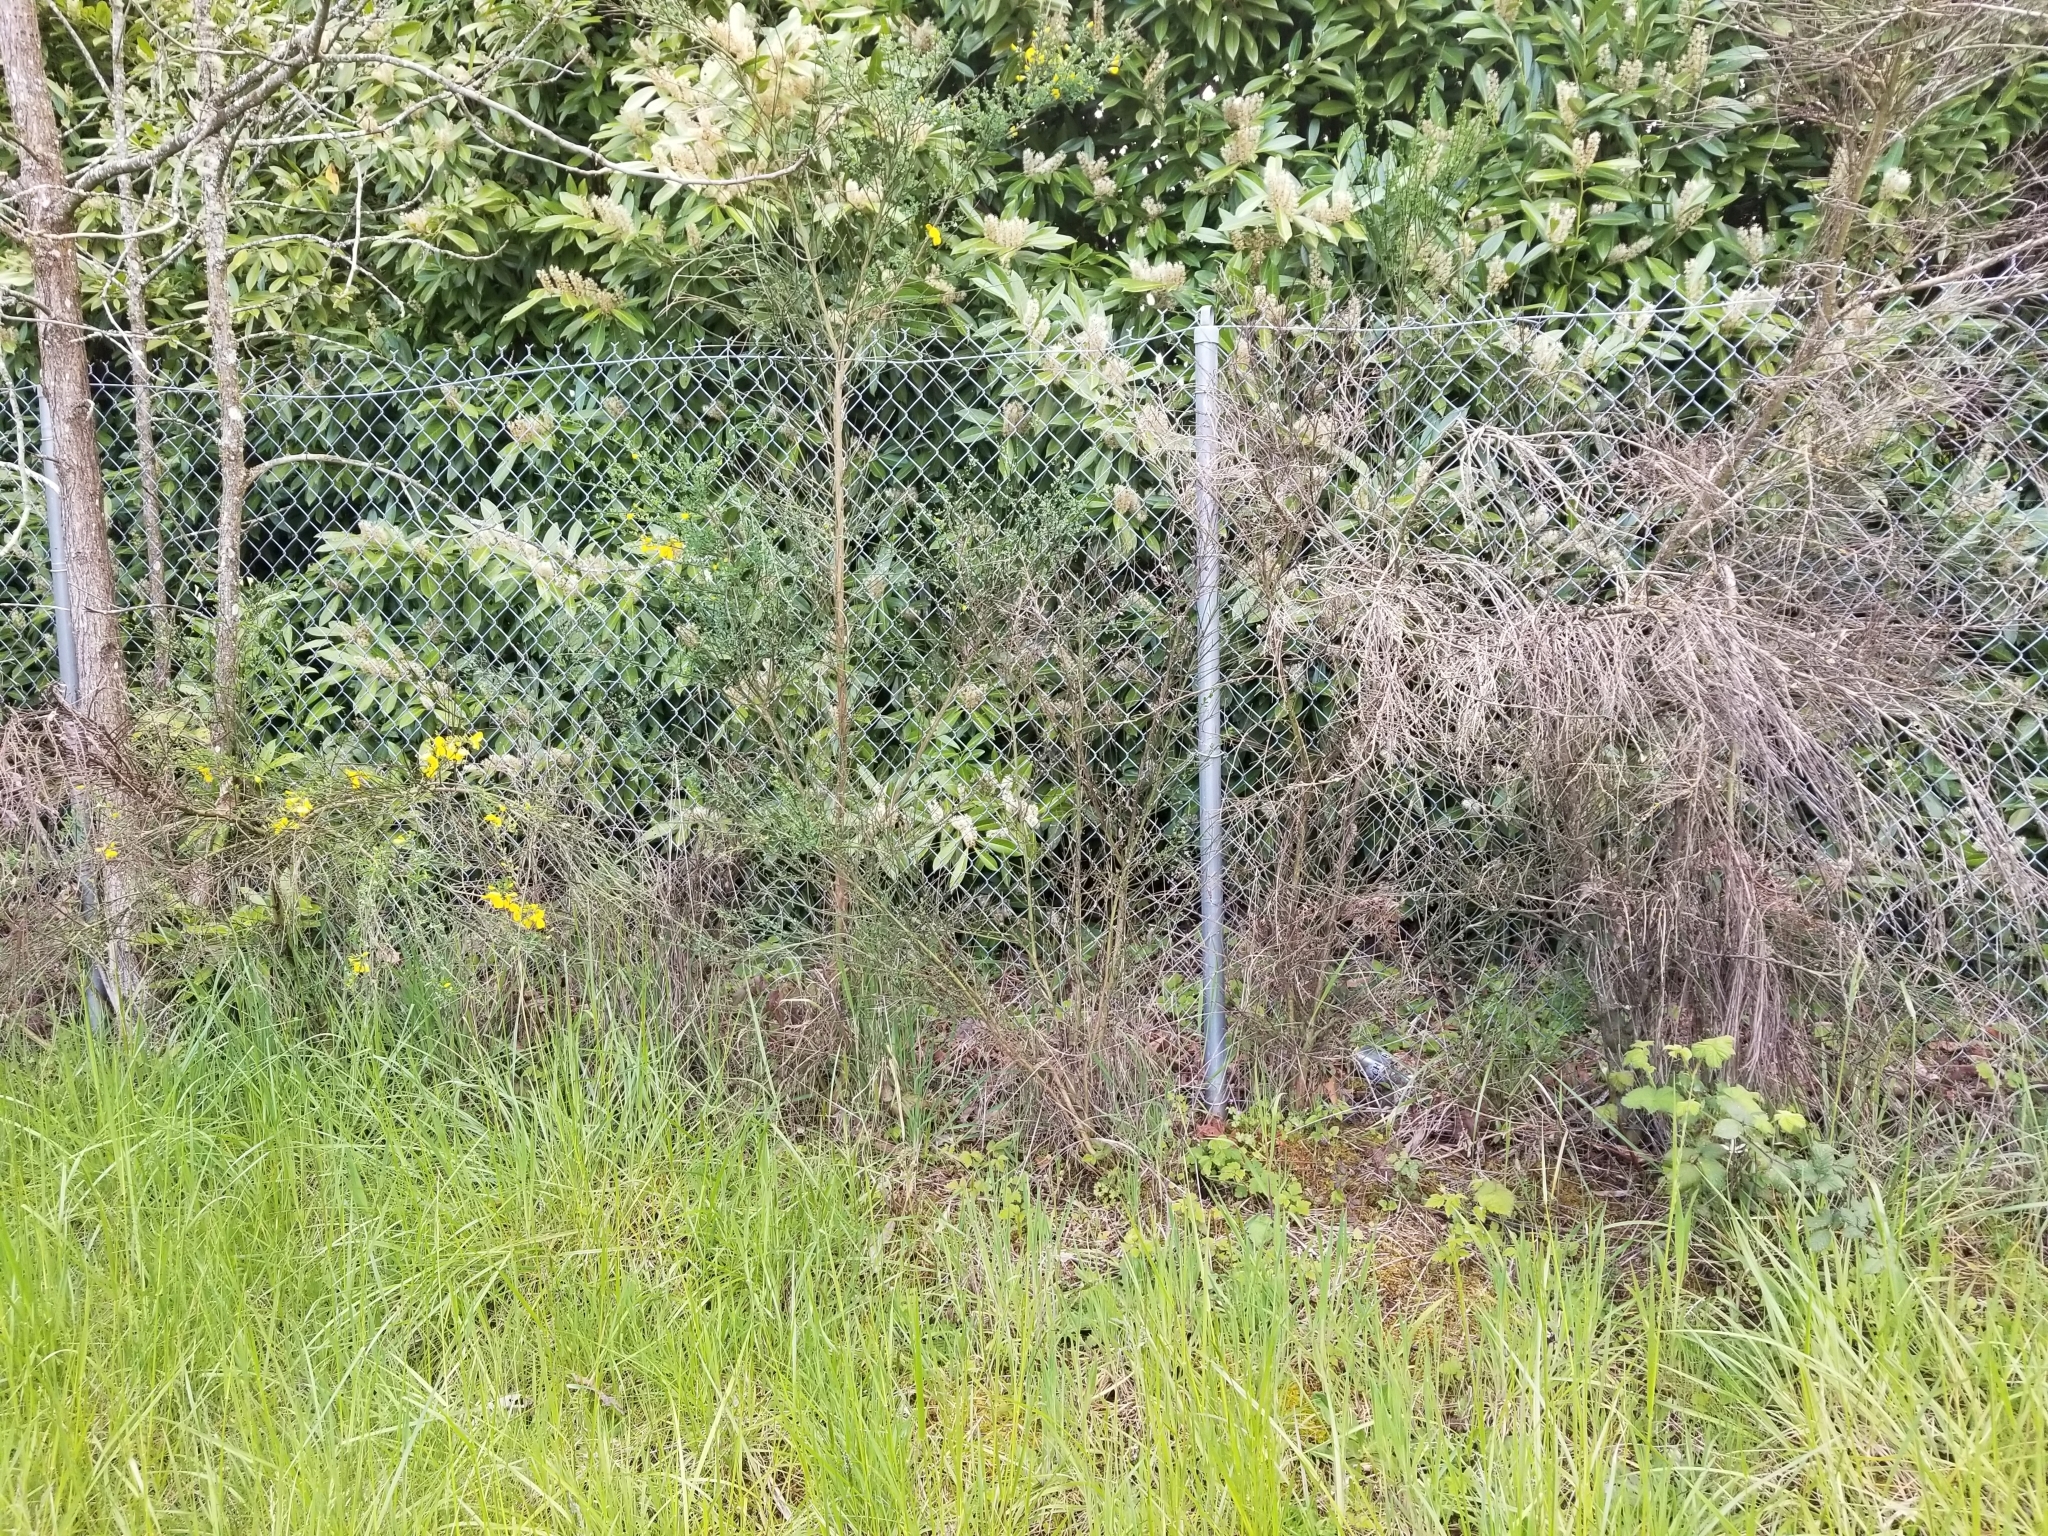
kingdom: Plantae
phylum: Tracheophyta
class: Magnoliopsida
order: Fabales
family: Fabaceae
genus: Cytisus
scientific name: Cytisus scoparius
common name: Scotch broom
